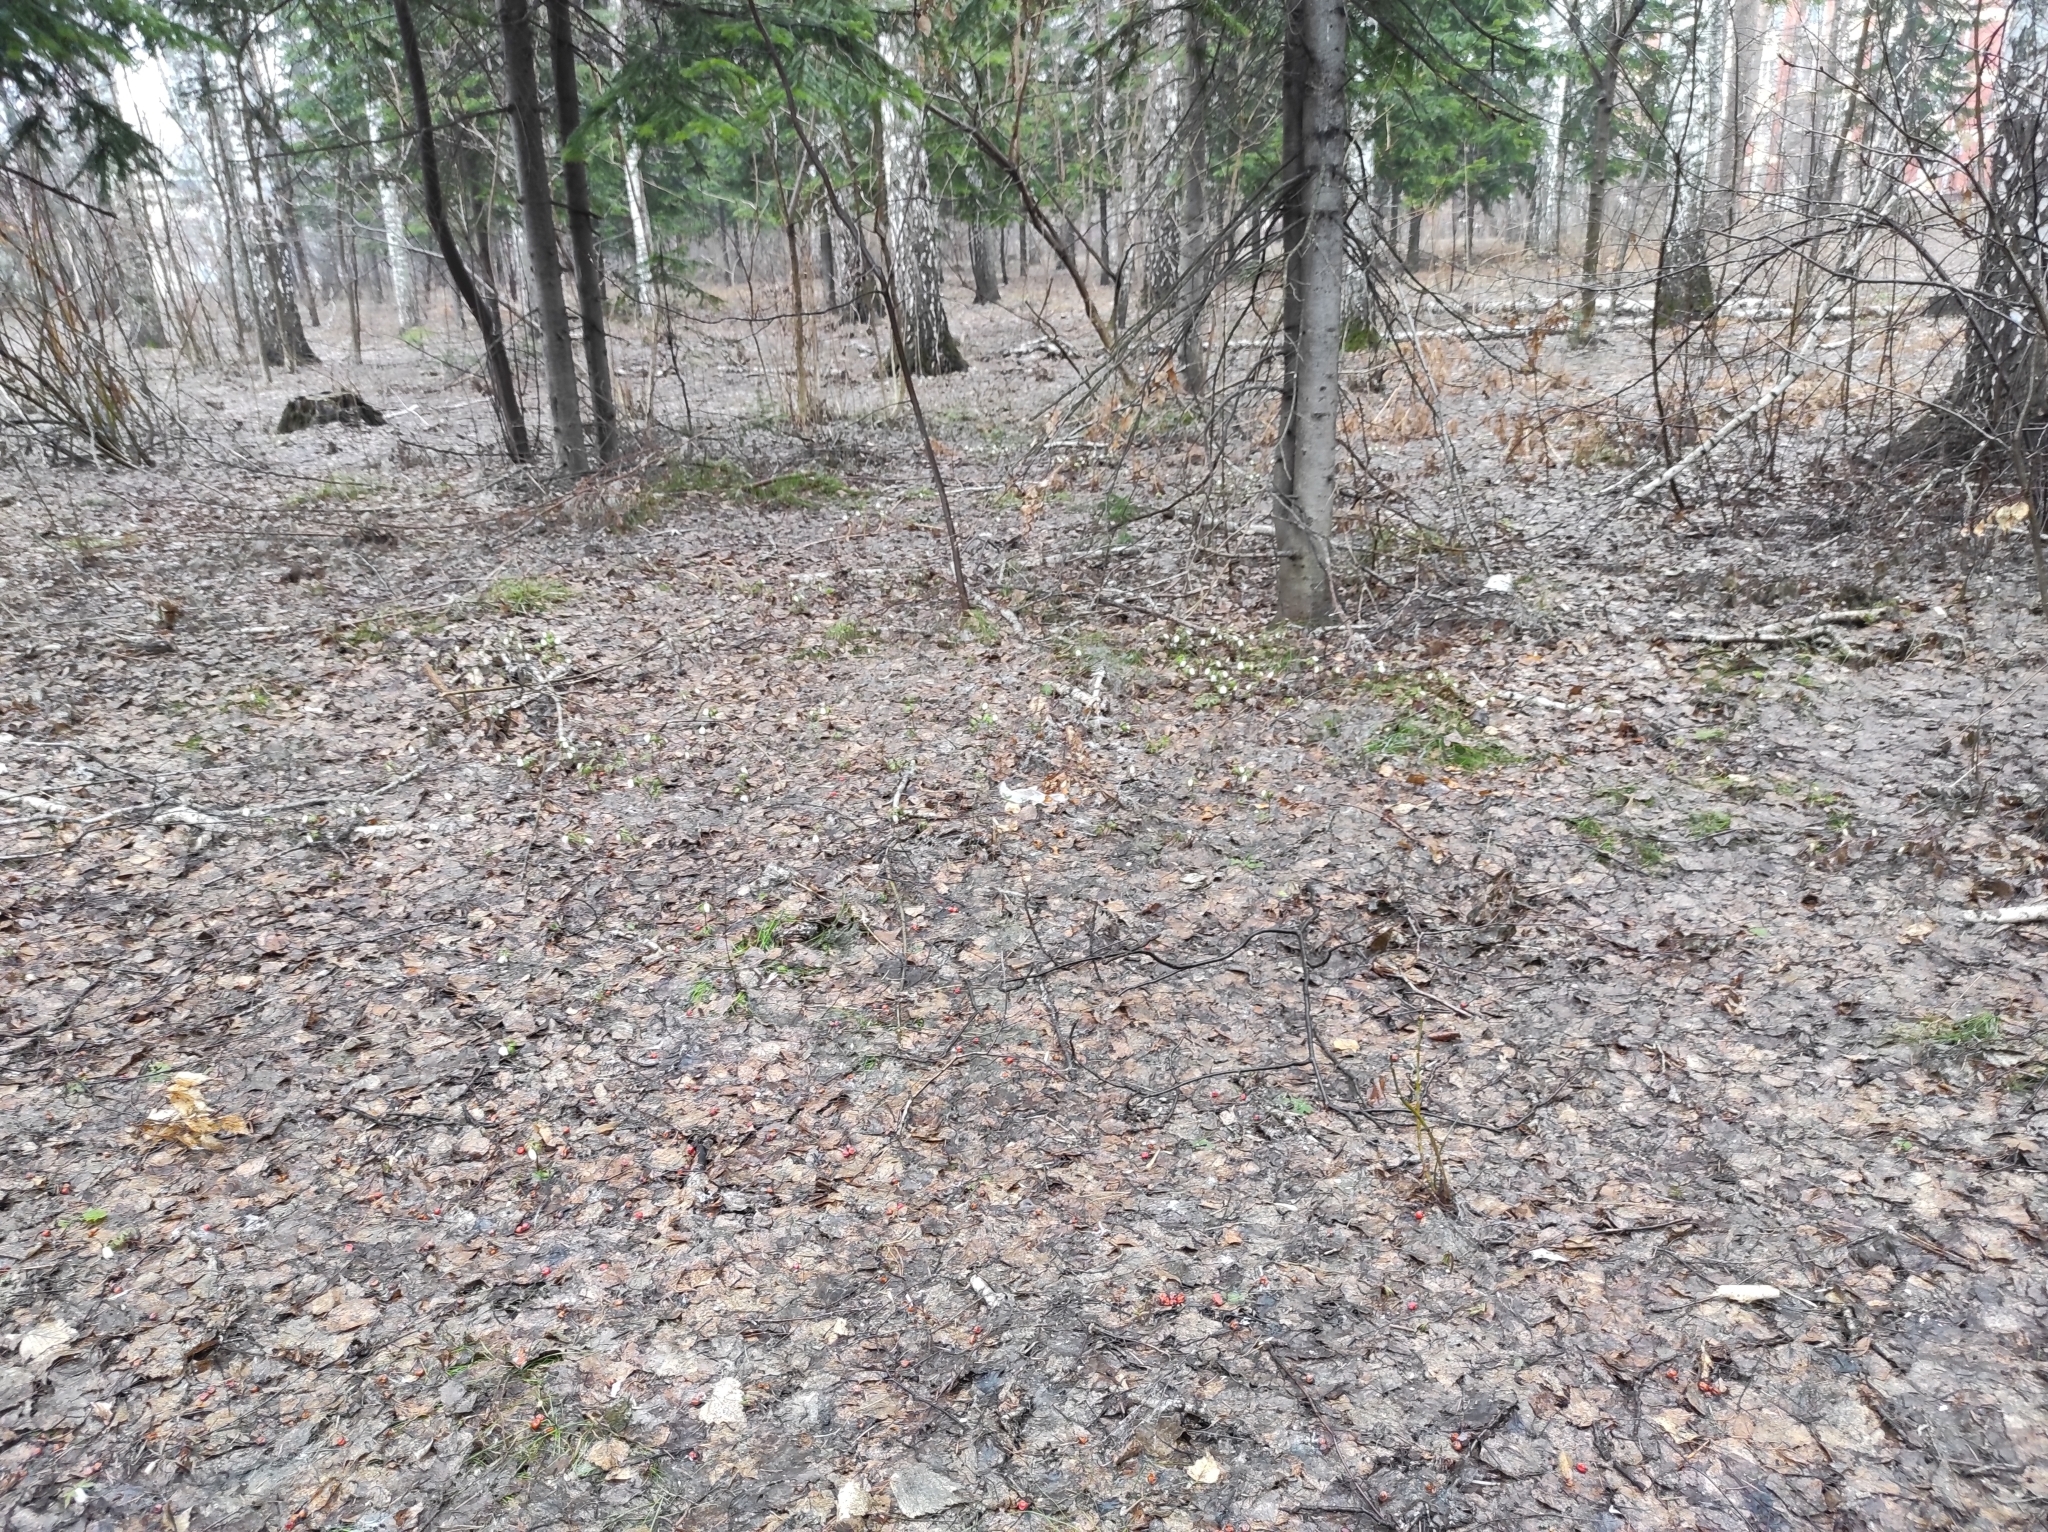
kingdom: Plantae
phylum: Tracheophyta
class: Magnoliopsida
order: Boraginales
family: Boraginaceae
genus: Pulmonaria
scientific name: Pulmonaria mollis
